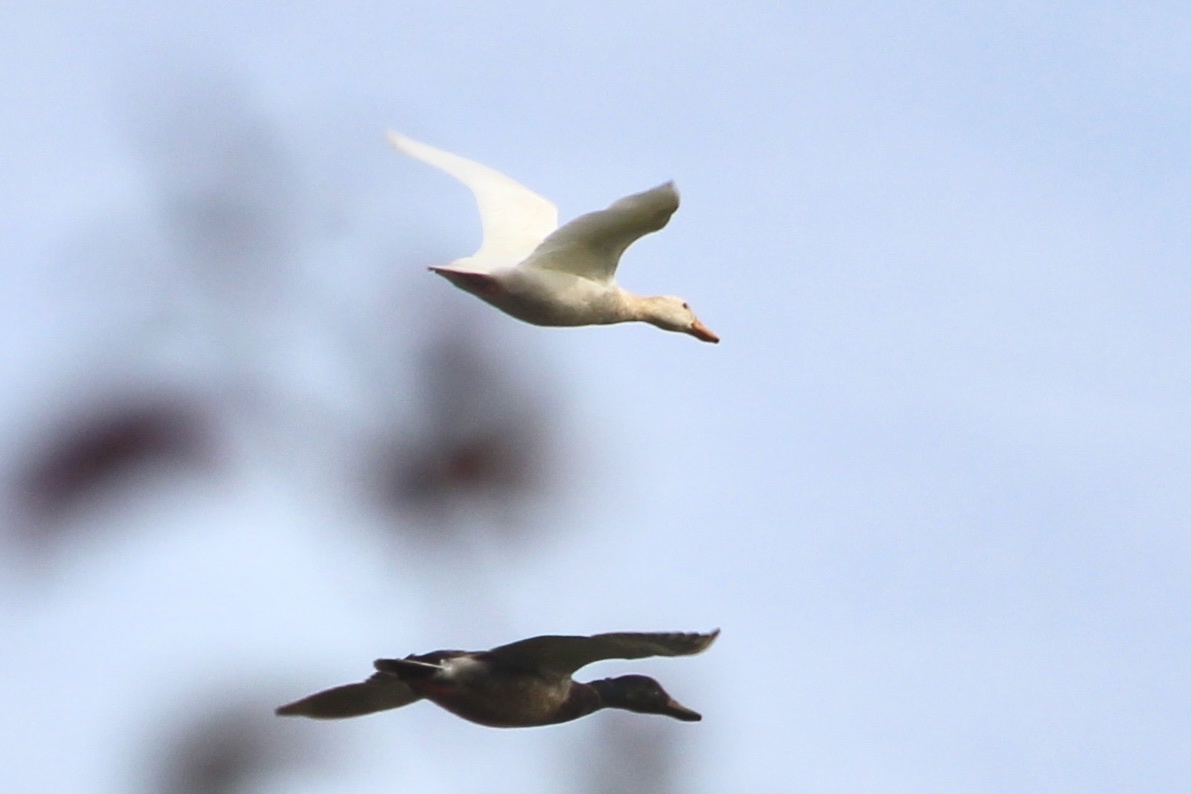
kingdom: Animalia
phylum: Chordata
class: Aves
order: Anseriformes
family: Anatidae
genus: Anas
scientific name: Anas platyrhynchos
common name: Mallard
